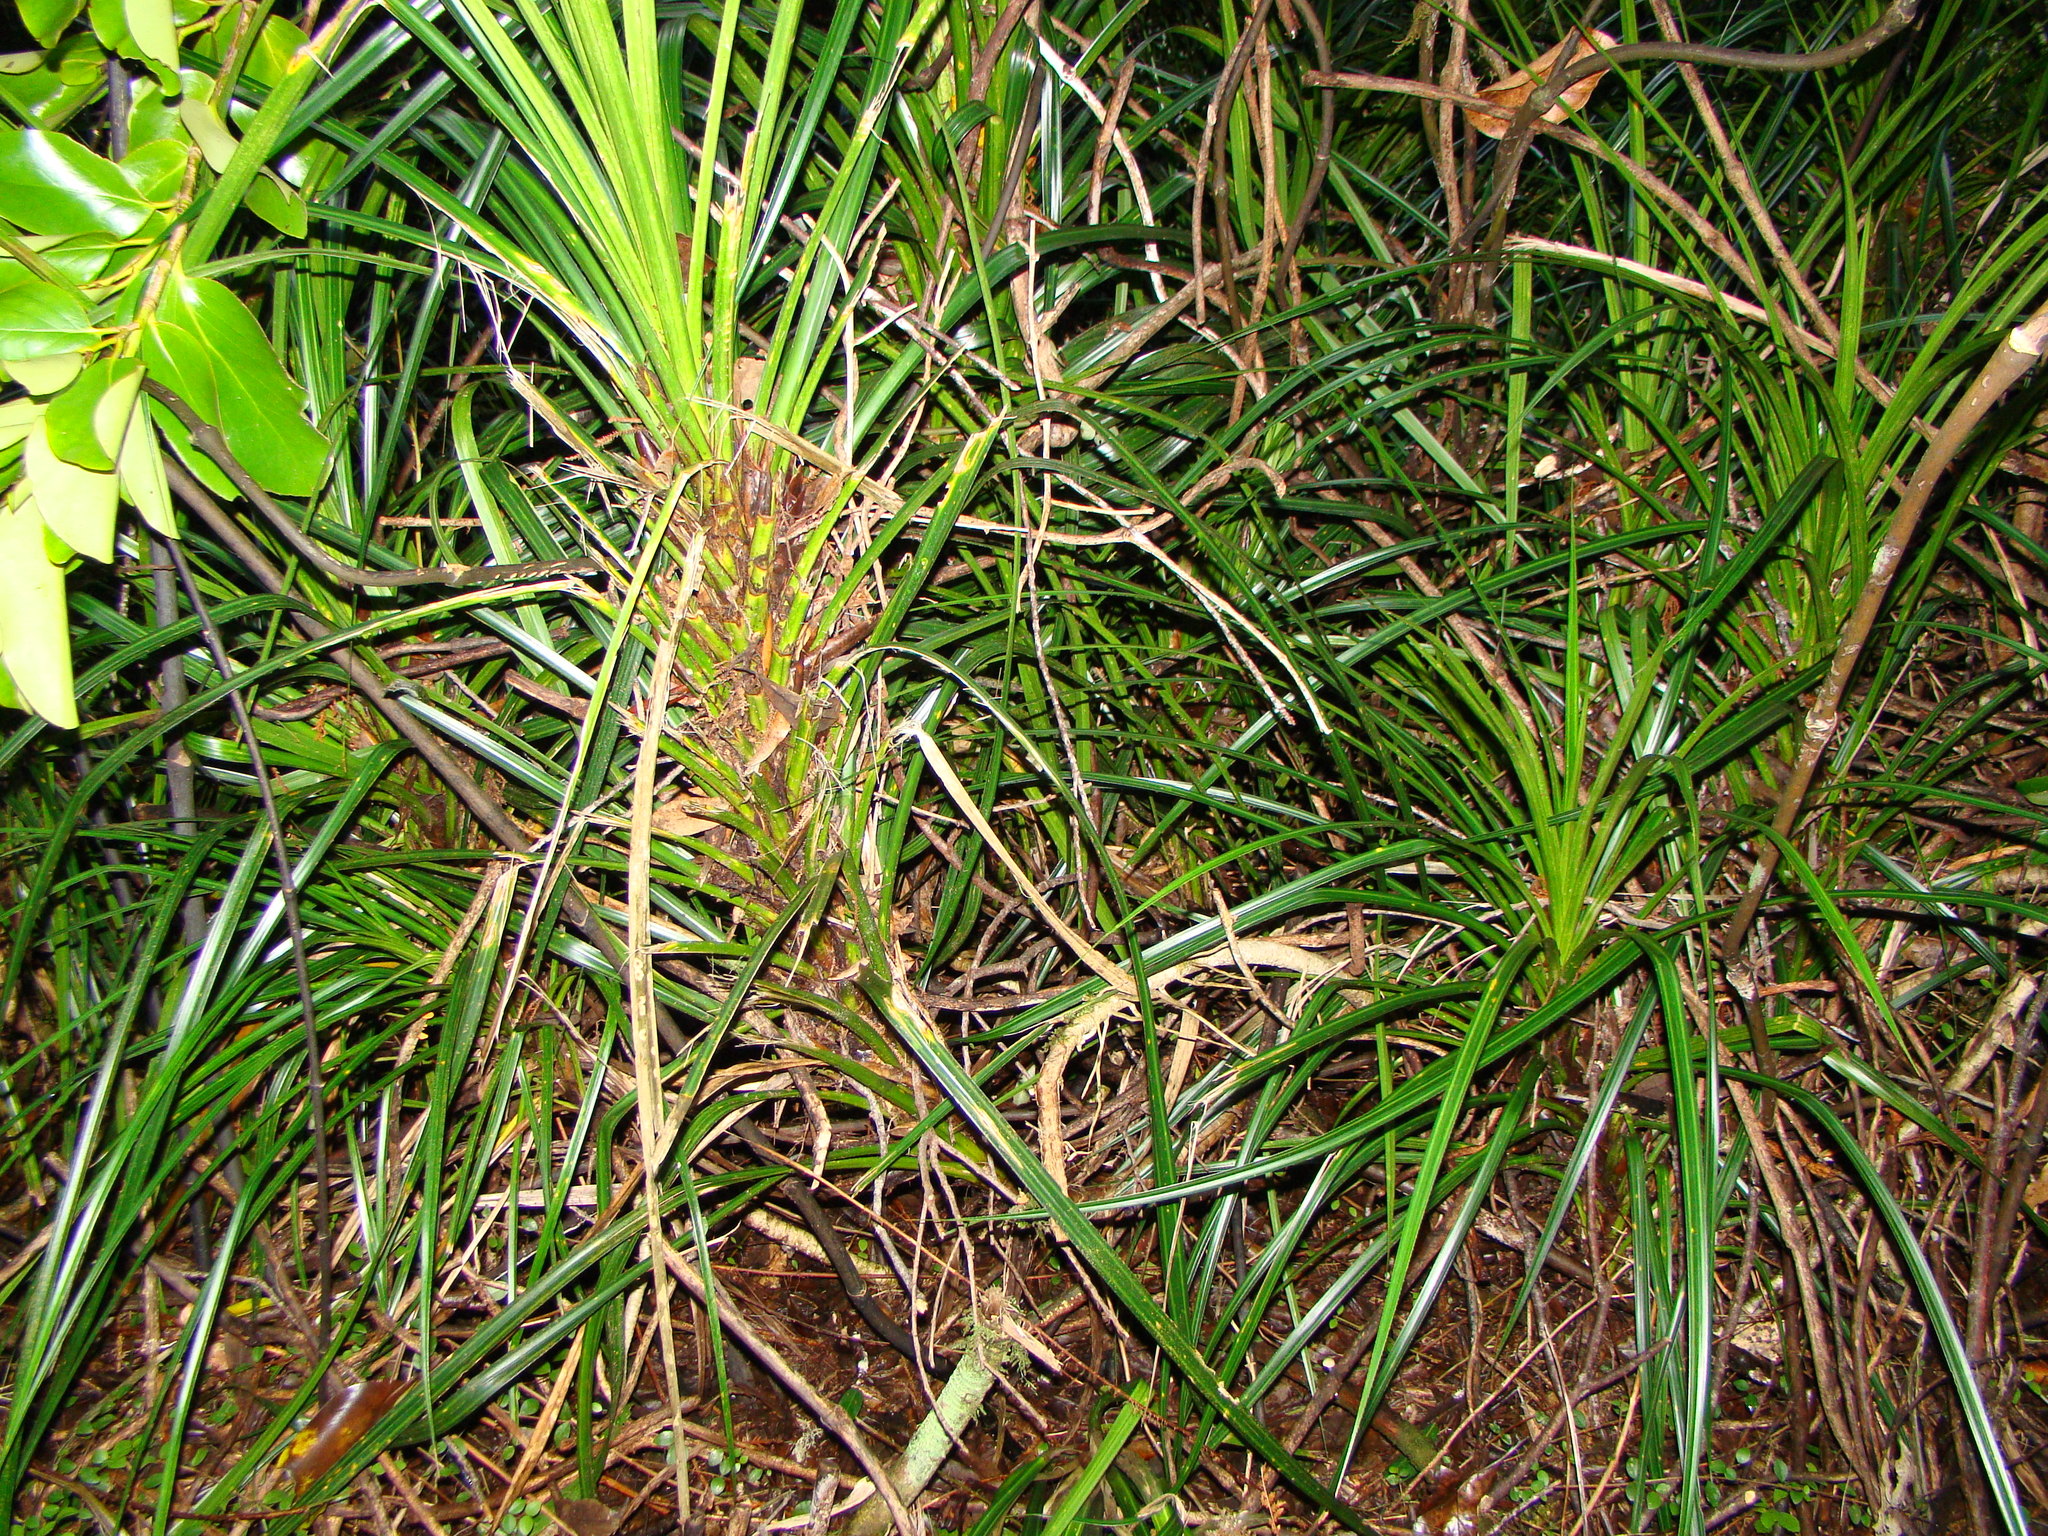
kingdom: Plantae
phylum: Tracheophyta
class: Liliopsida
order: Pandanales
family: Pandanaceae
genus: Freycinetia
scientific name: Freycinetia banksii
